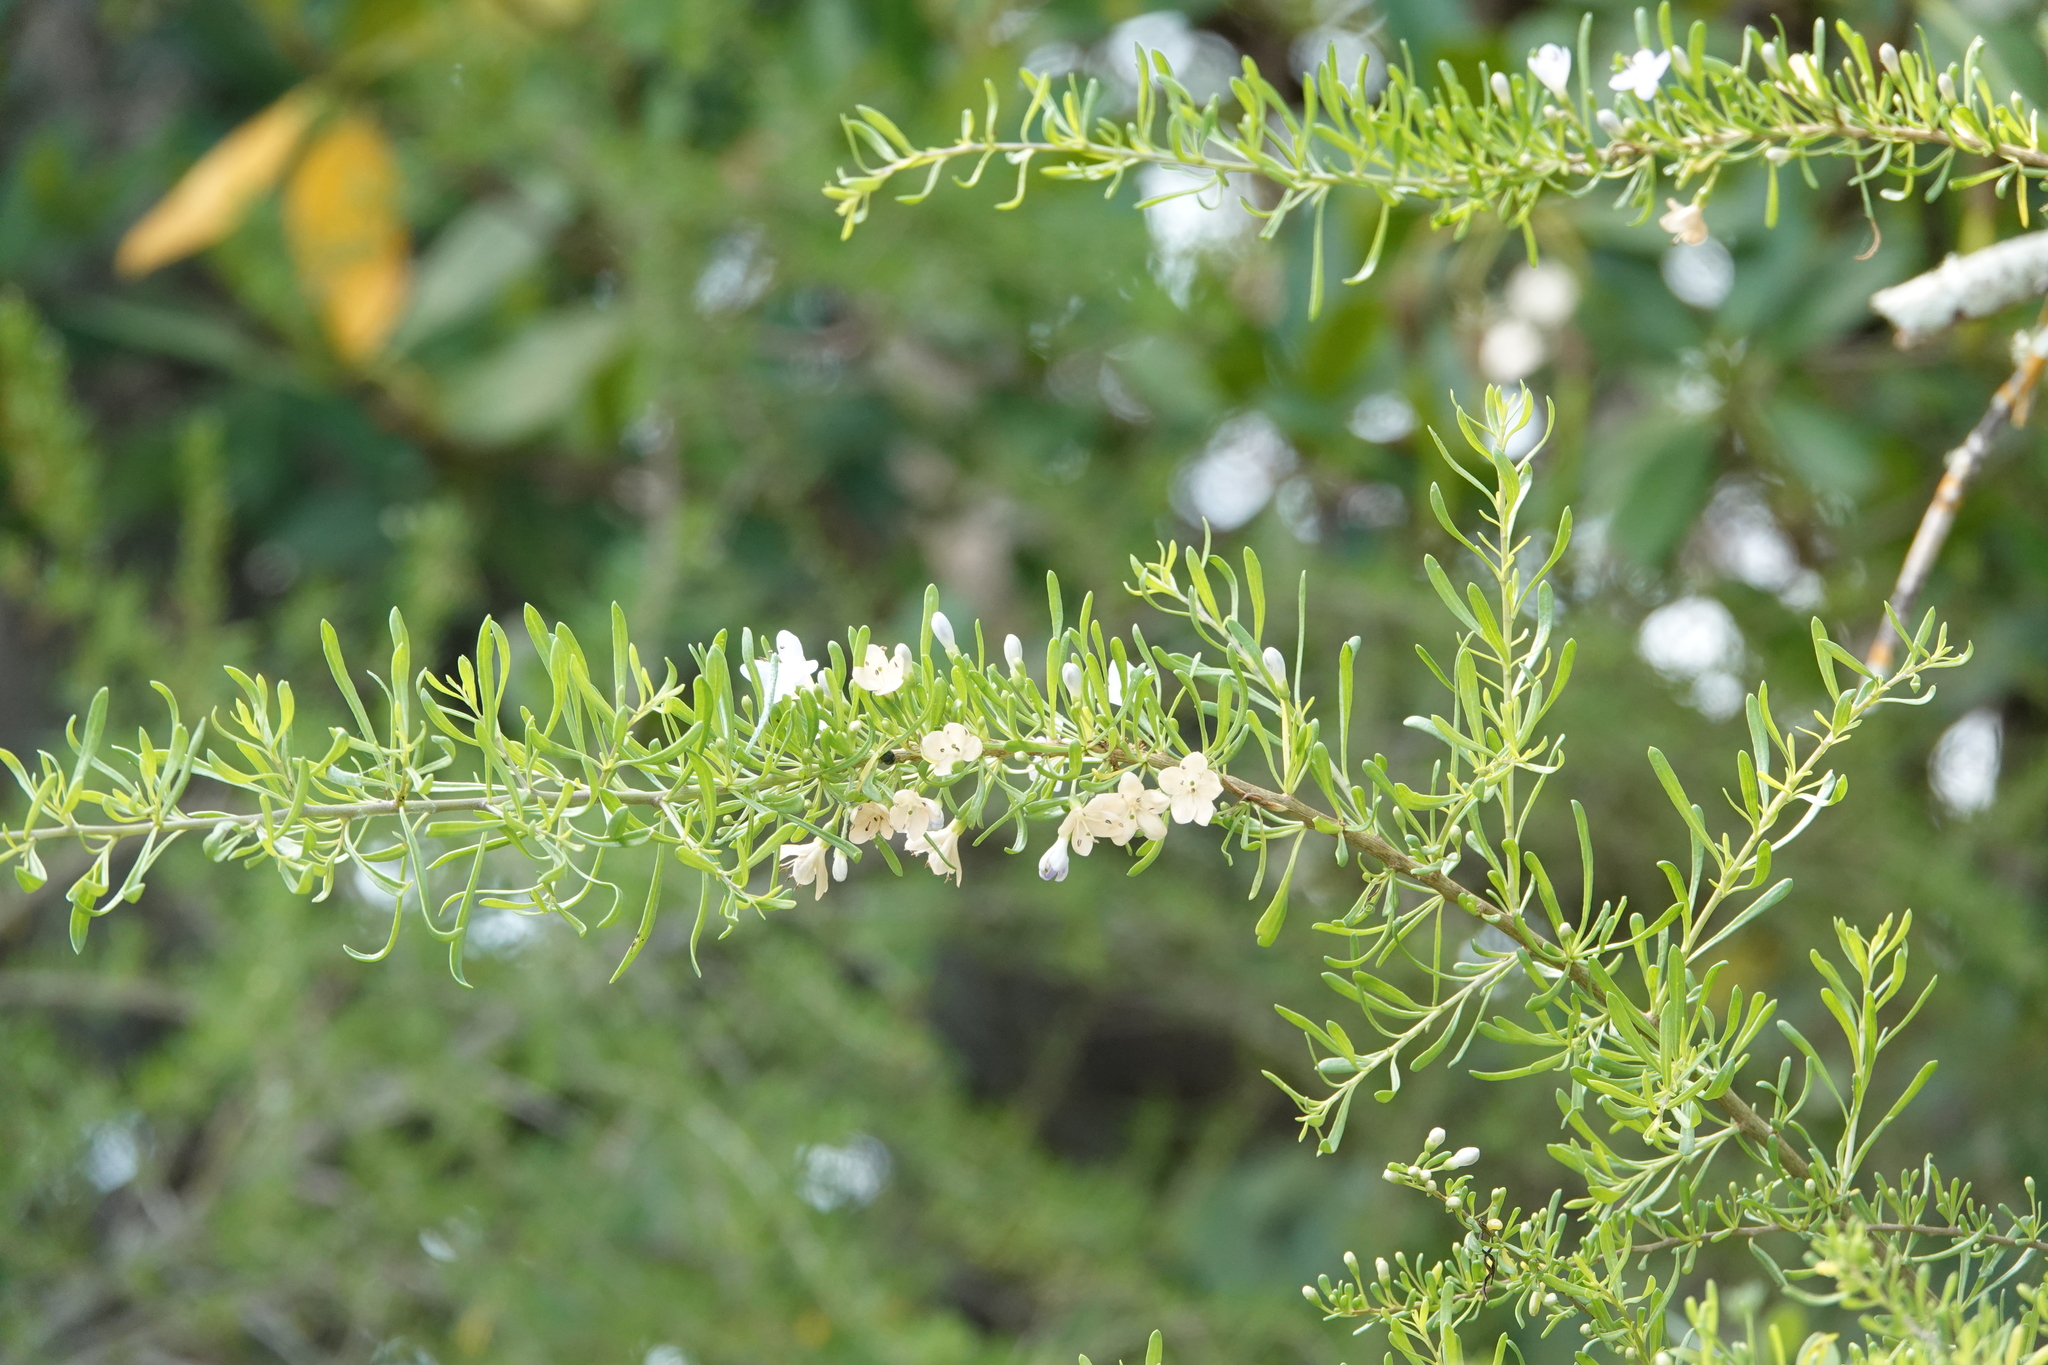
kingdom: Plantae
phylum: Tracheophyta
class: Magnoliopsida
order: Solanales
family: Solanaceae
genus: Lycium
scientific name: Lycium carolinianum
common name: Christmasberry
